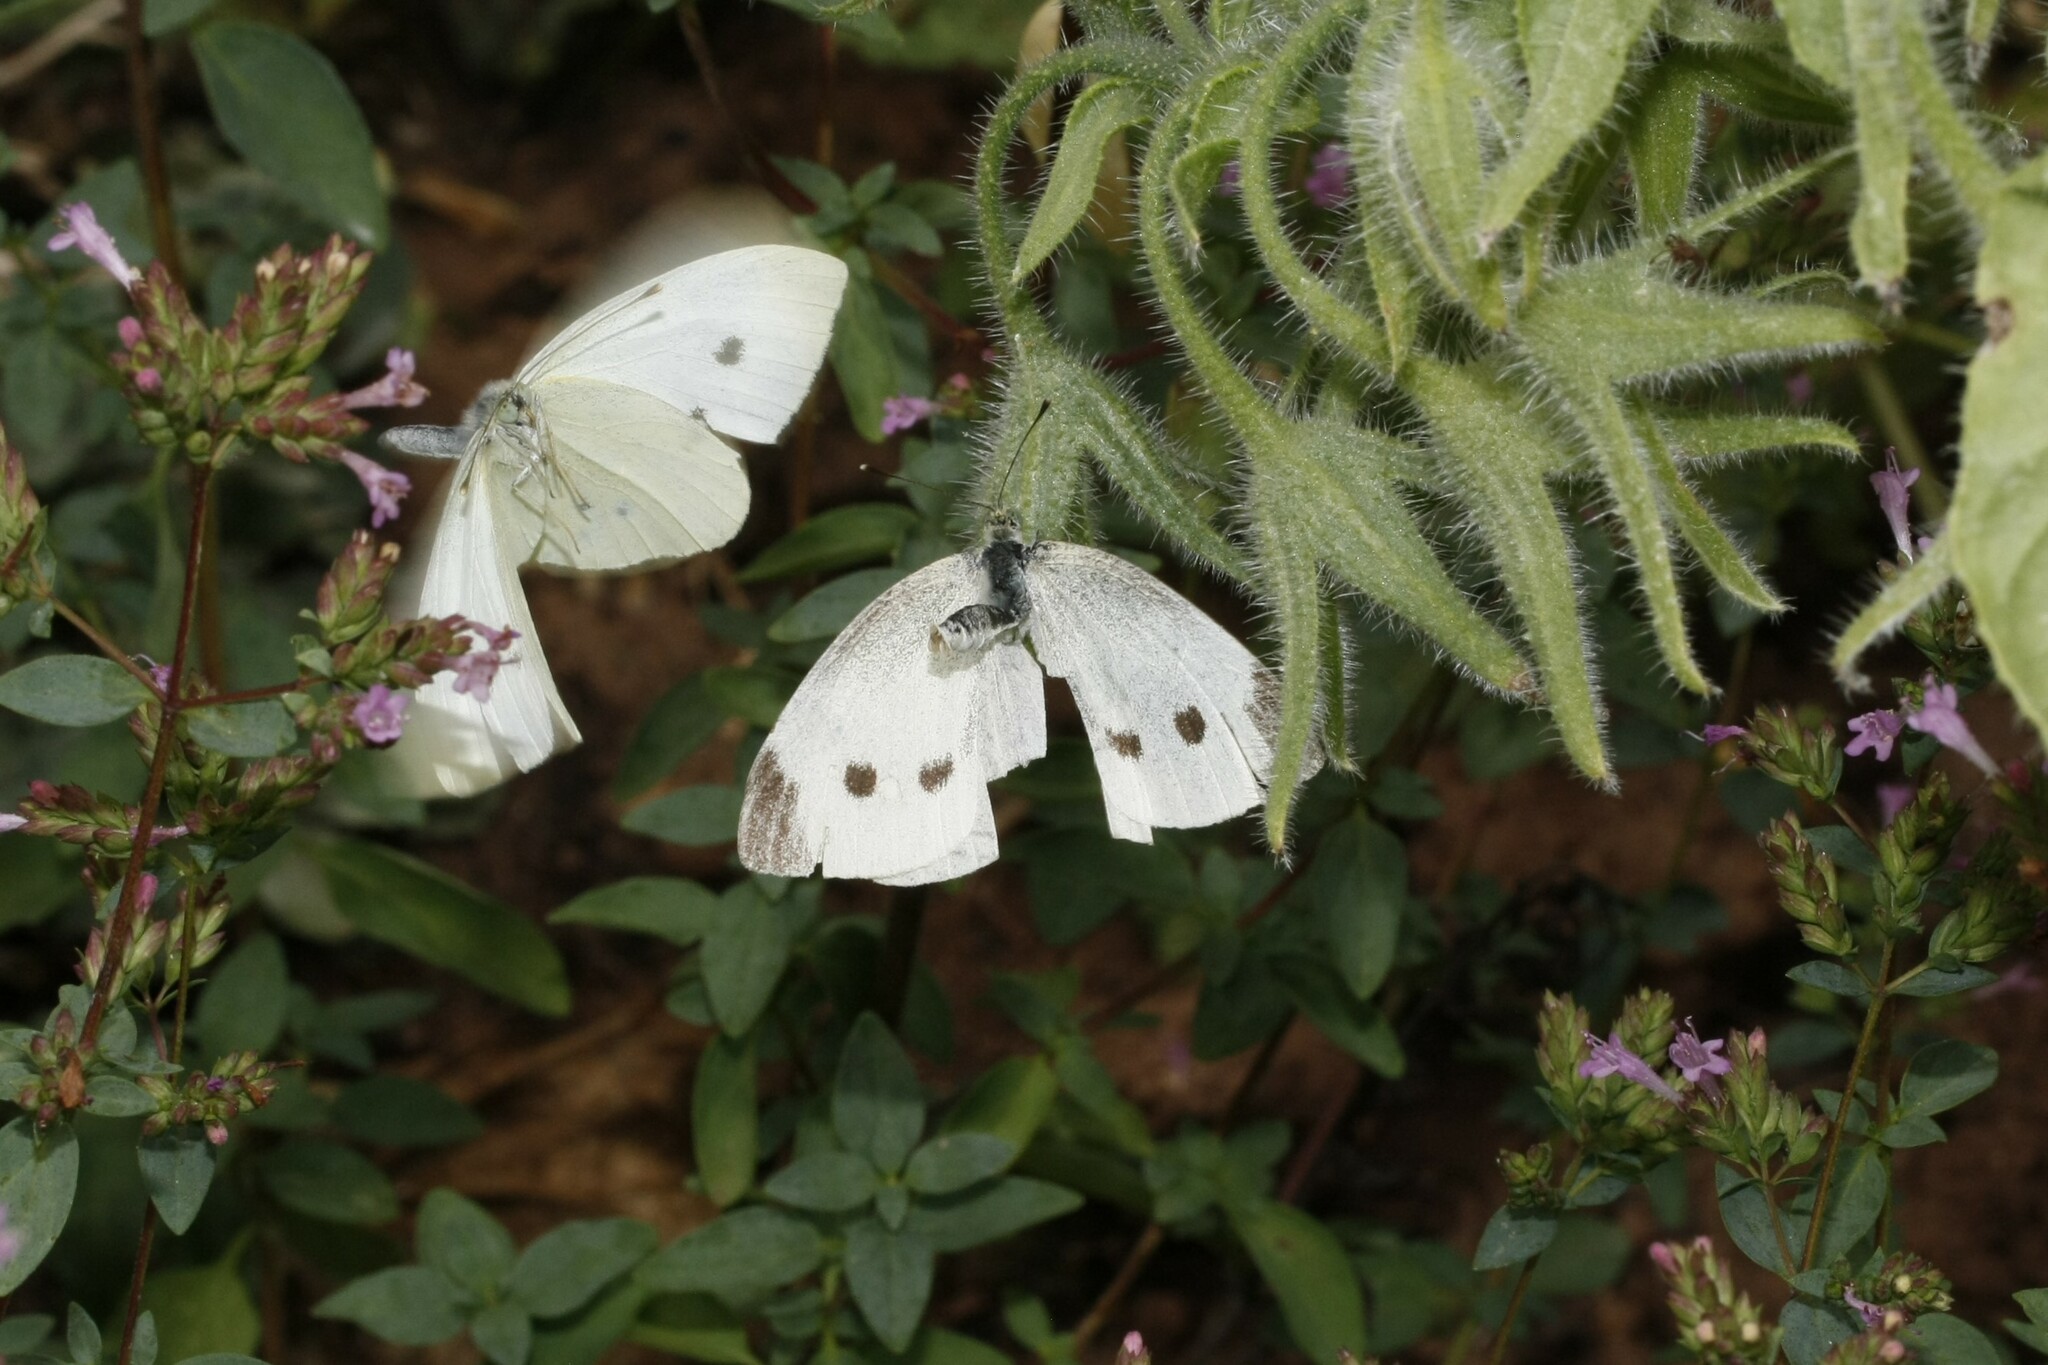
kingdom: Animalia
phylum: Arthropoda
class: Insecta
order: Lepidoptera
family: Pieridae
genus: Pieris
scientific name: Pieris rapae
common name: Small white
